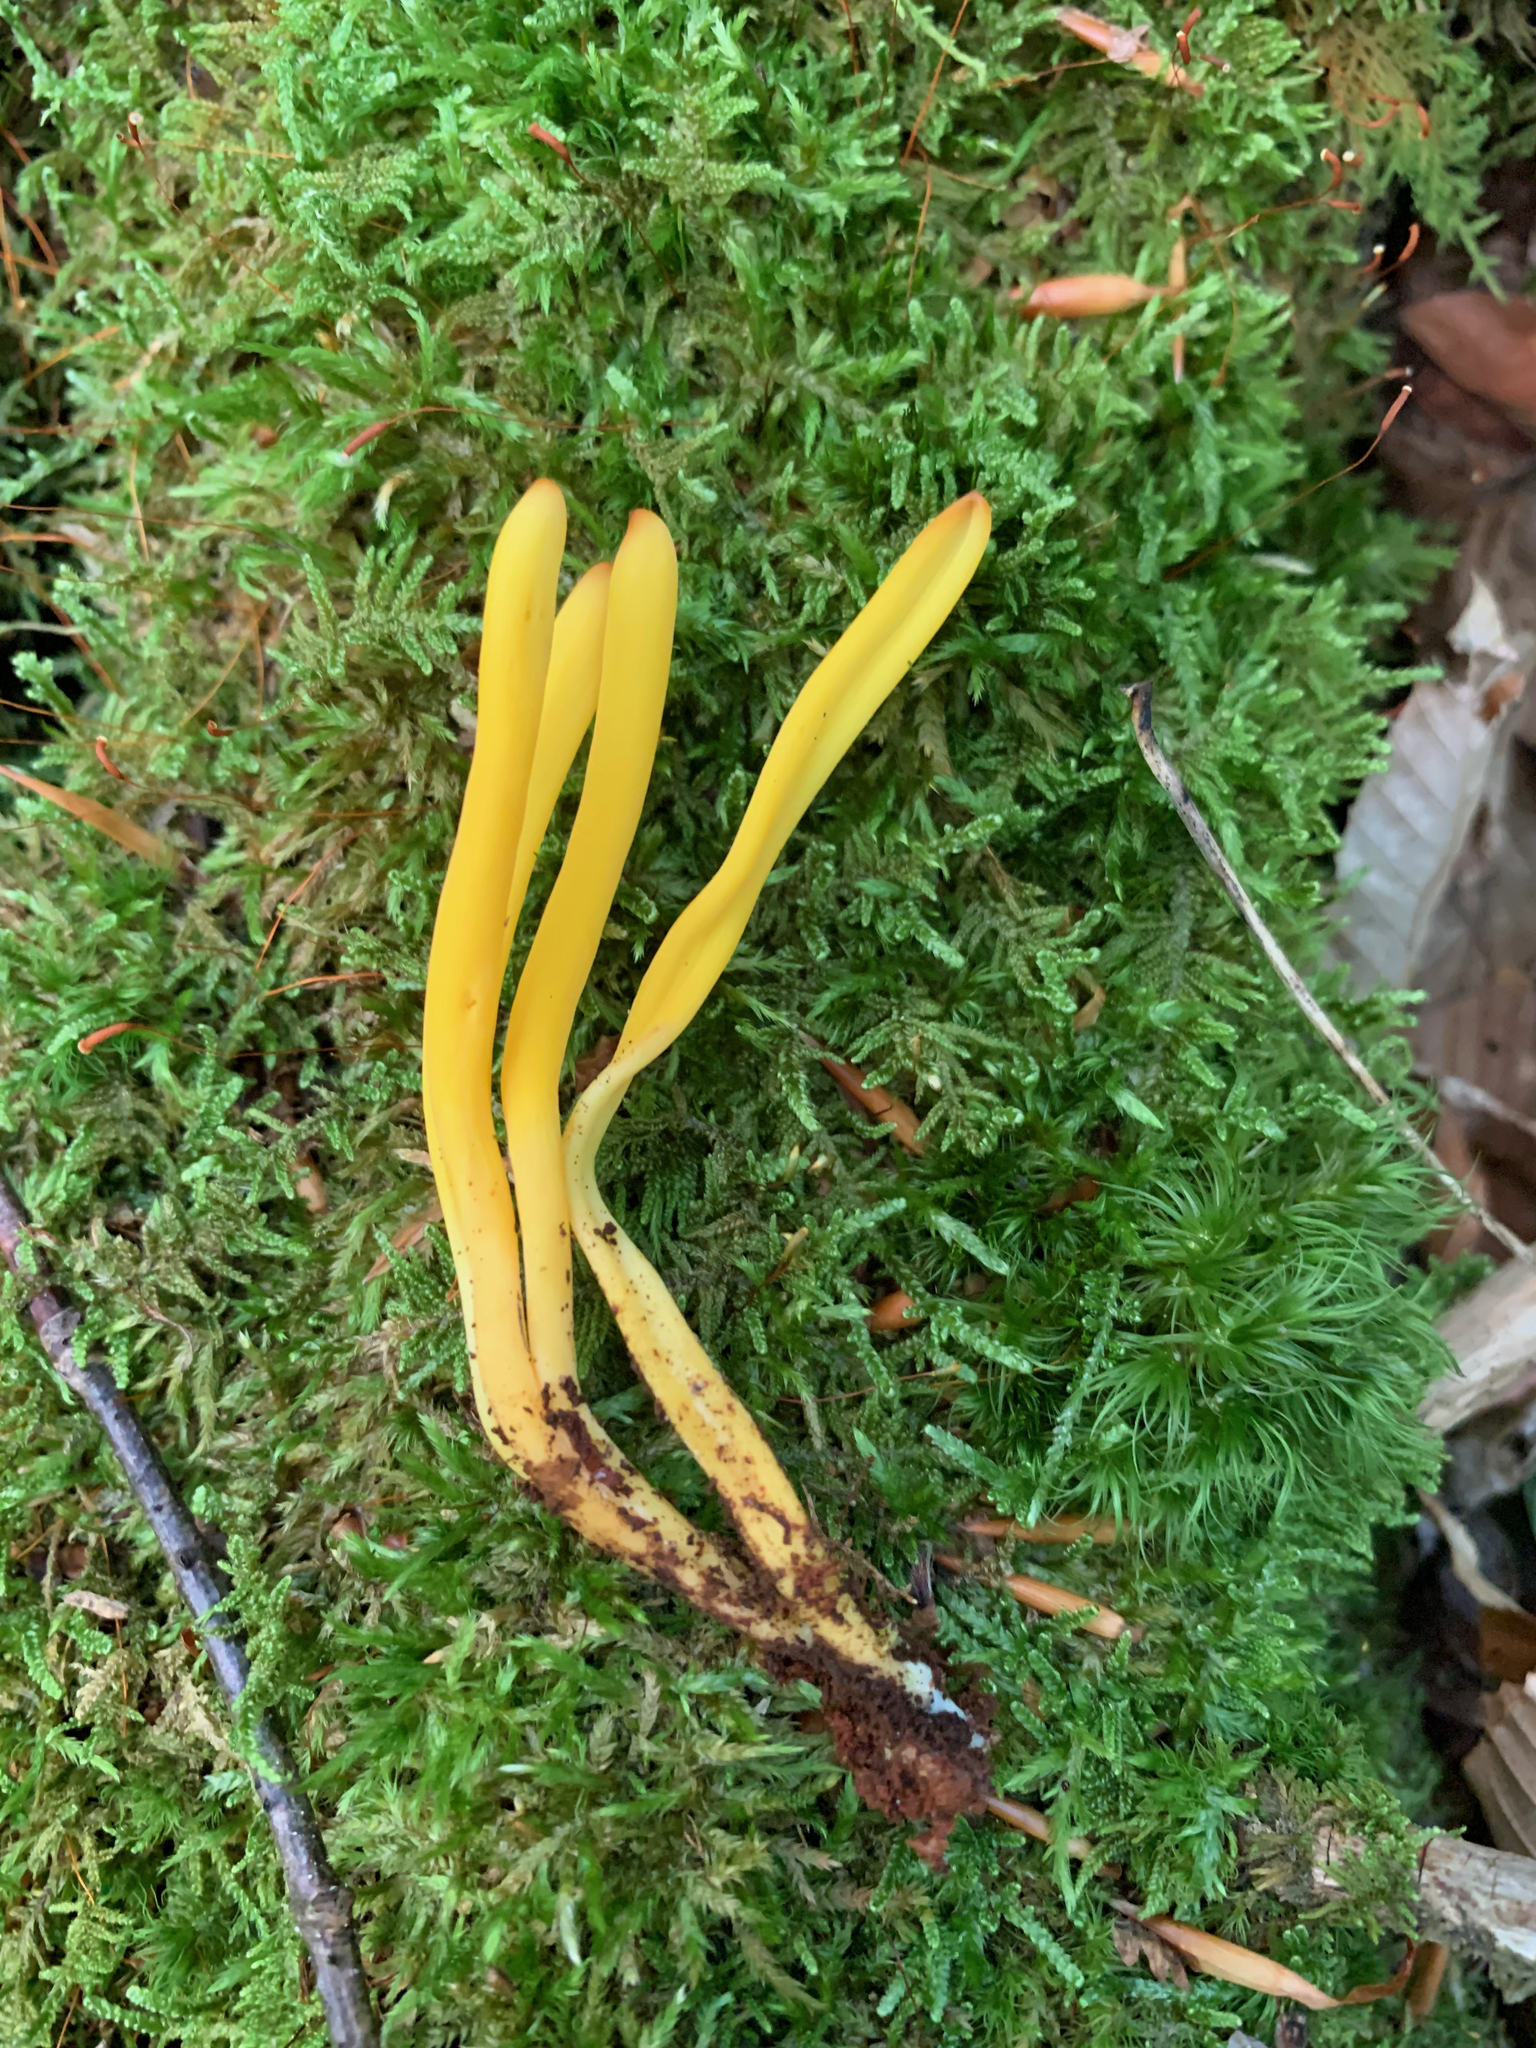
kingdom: Fungi
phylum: Basidiomycota
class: Agaricomycetes
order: Agaricales
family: Clavariaceae
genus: Clavulinopsis
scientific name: Clavulinopsis fusiformis
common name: Golden spindles
